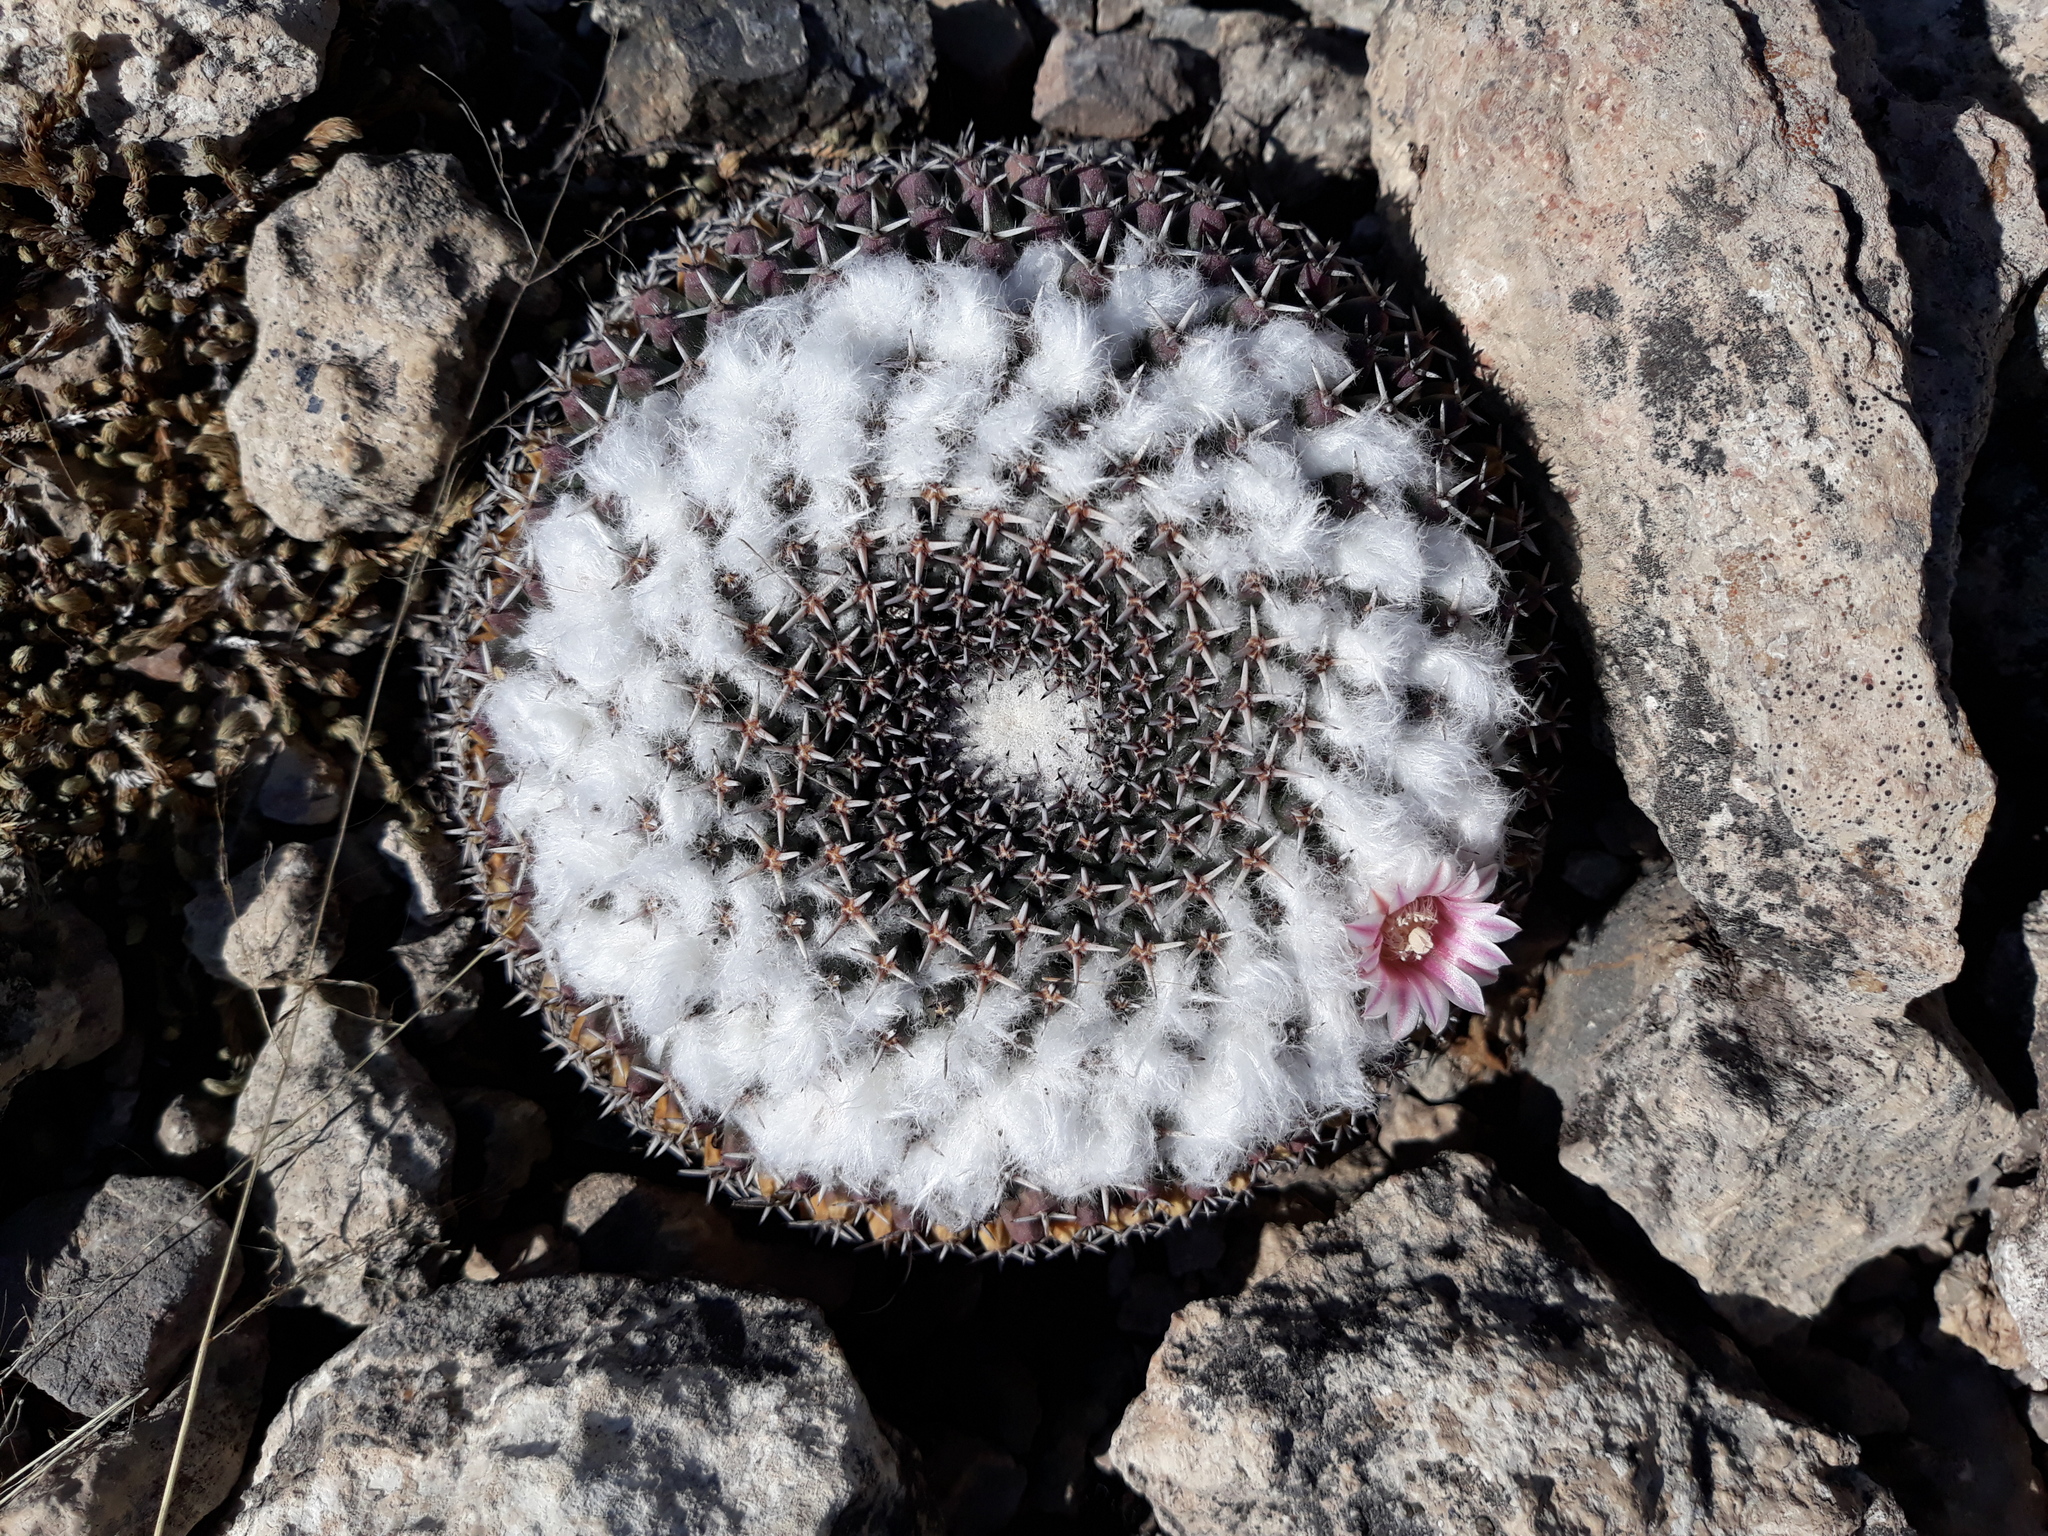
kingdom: Plantae
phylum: Tracheophyta
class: Magnoliopsida
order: Caryophyllales
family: Cactaceae
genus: Mammillaria
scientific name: Mammillaria
